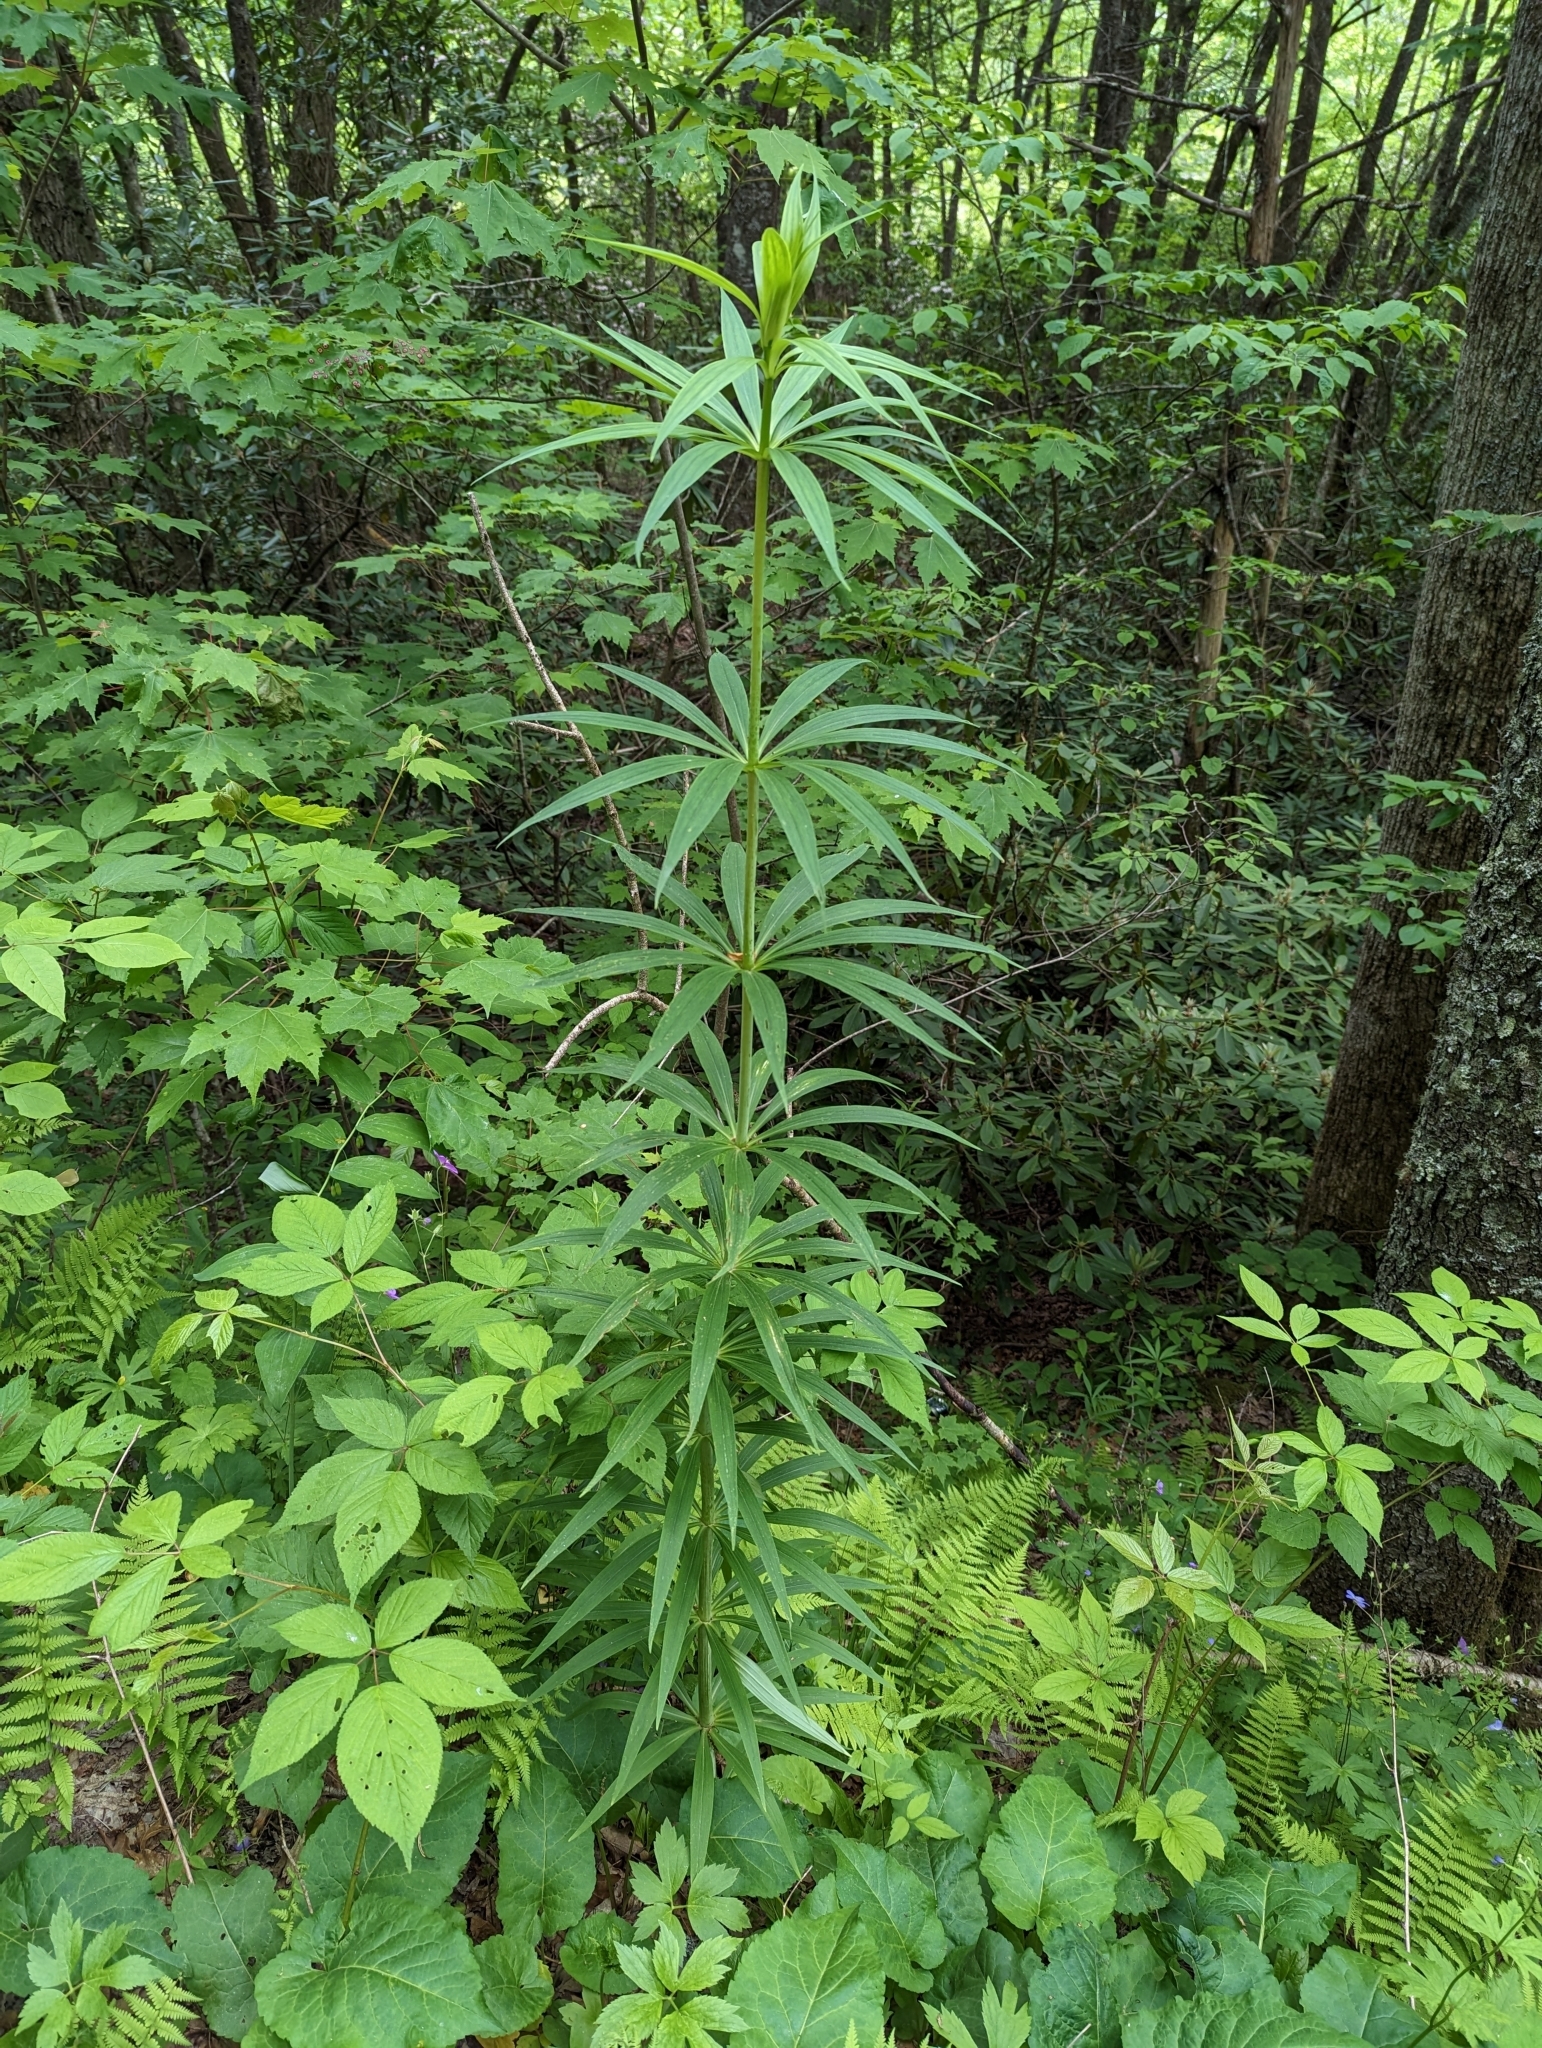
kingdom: Plantae
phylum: Tracheophyta
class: Liliopsida
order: Liliales
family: Liliaceae
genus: Lilium
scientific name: Lilium superbum
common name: American turk's-cap lily
